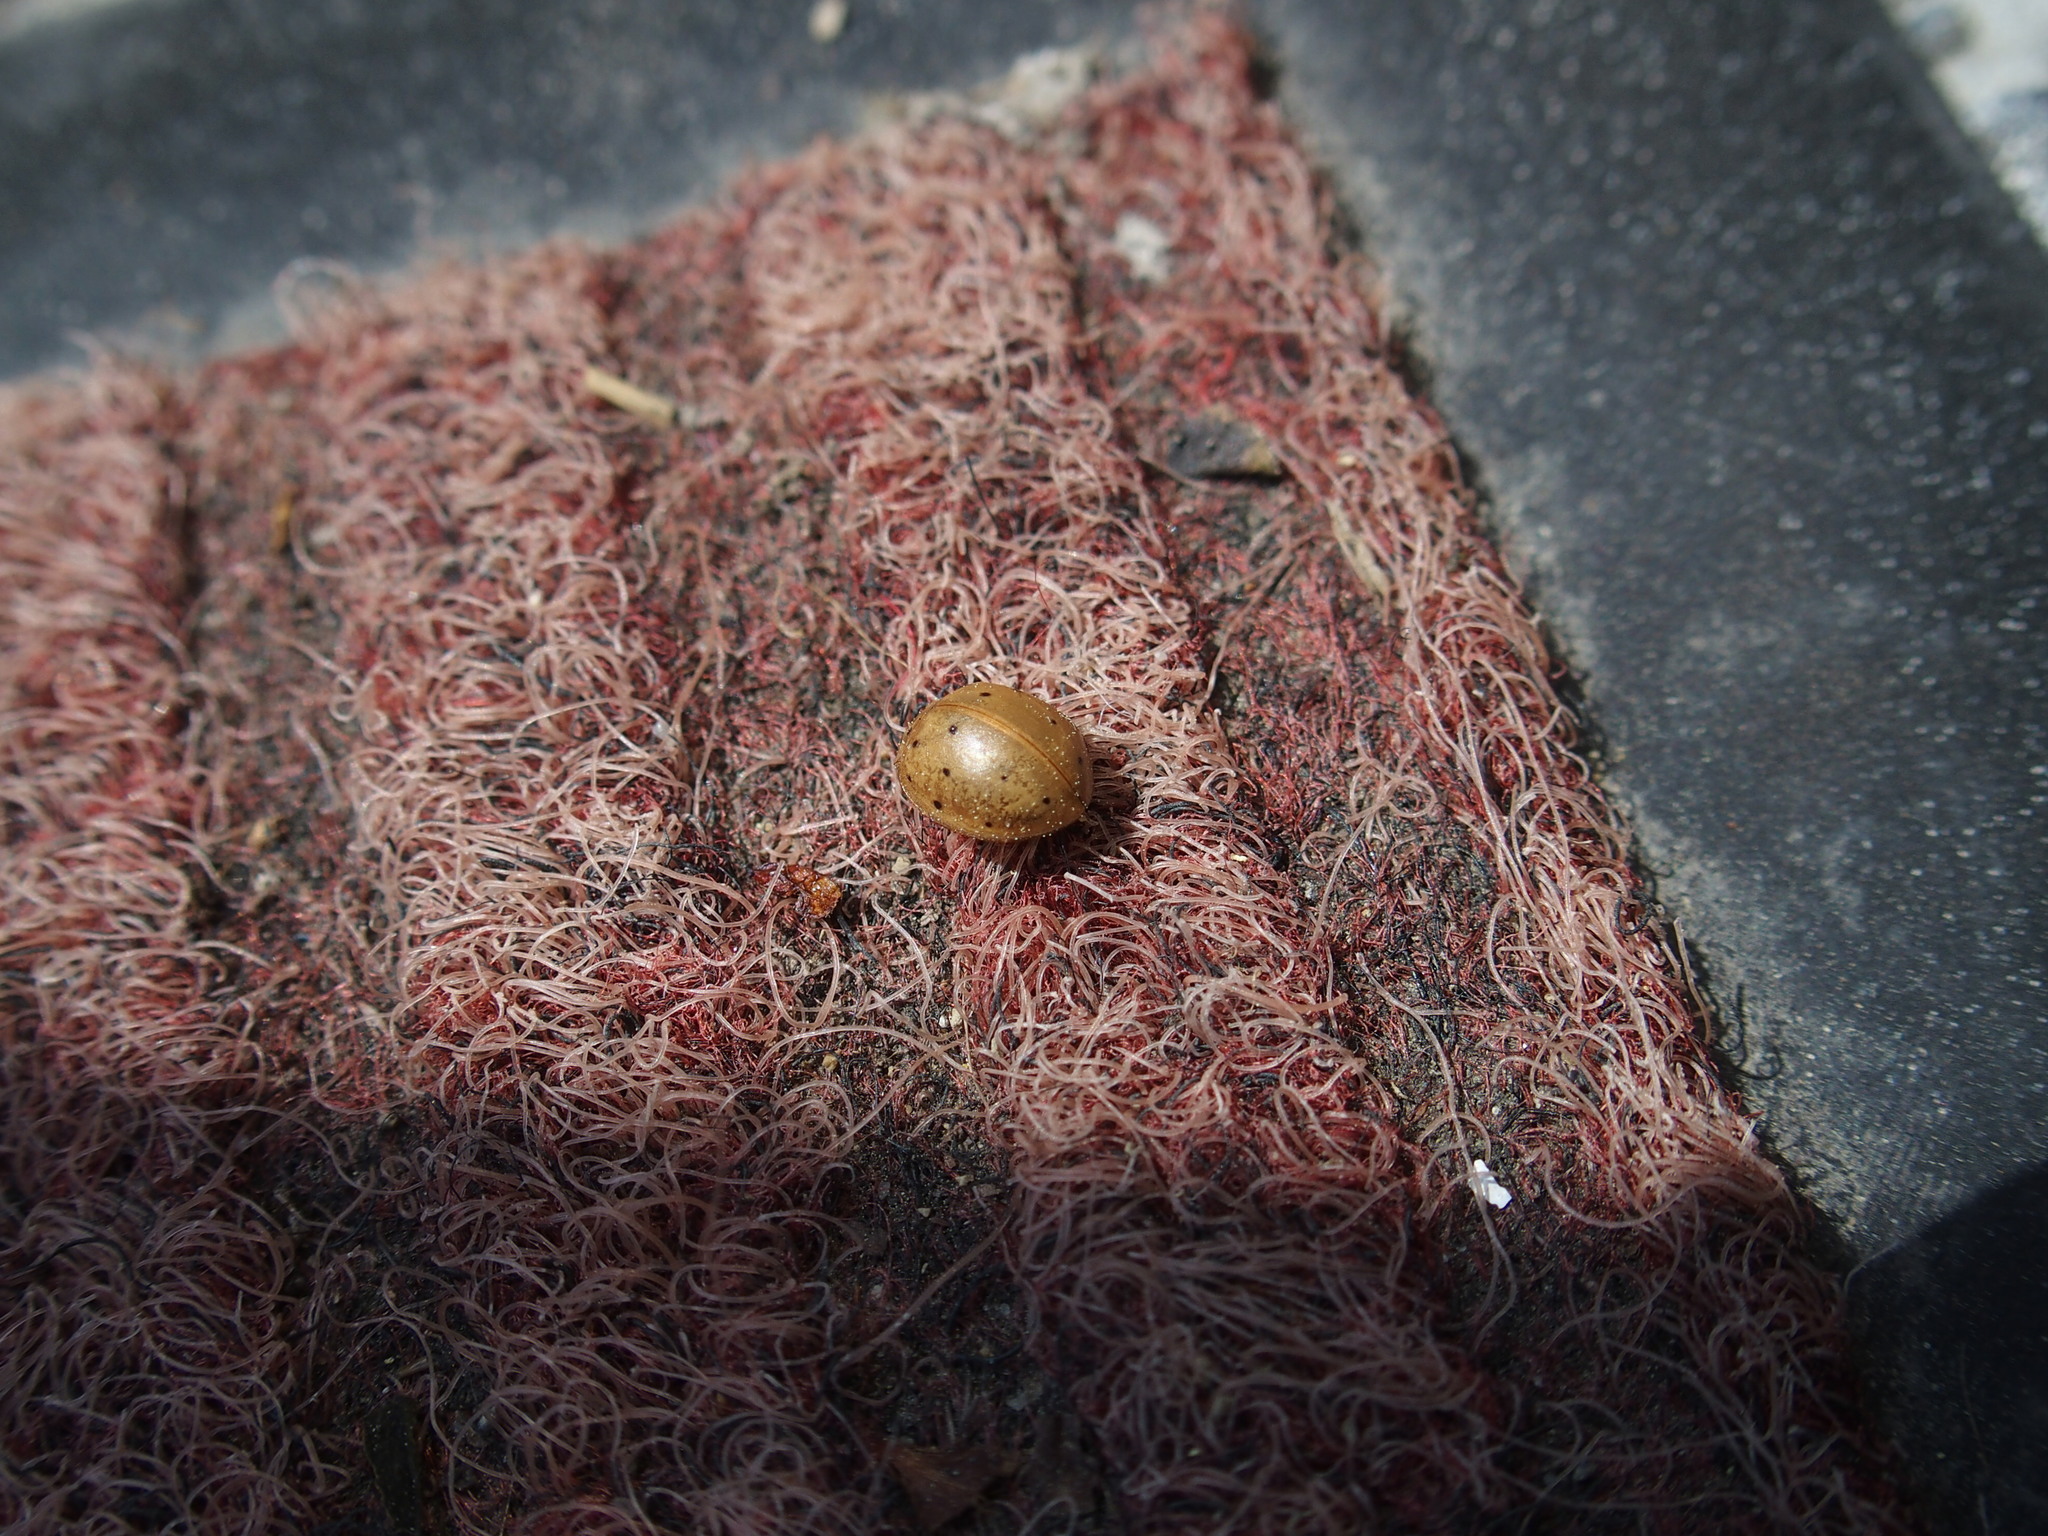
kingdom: Animalia
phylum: Arthropoda
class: Insecta
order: Coleoptera
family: Coccinellidae
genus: Harmonia
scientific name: Harmonia sedecimnotata
